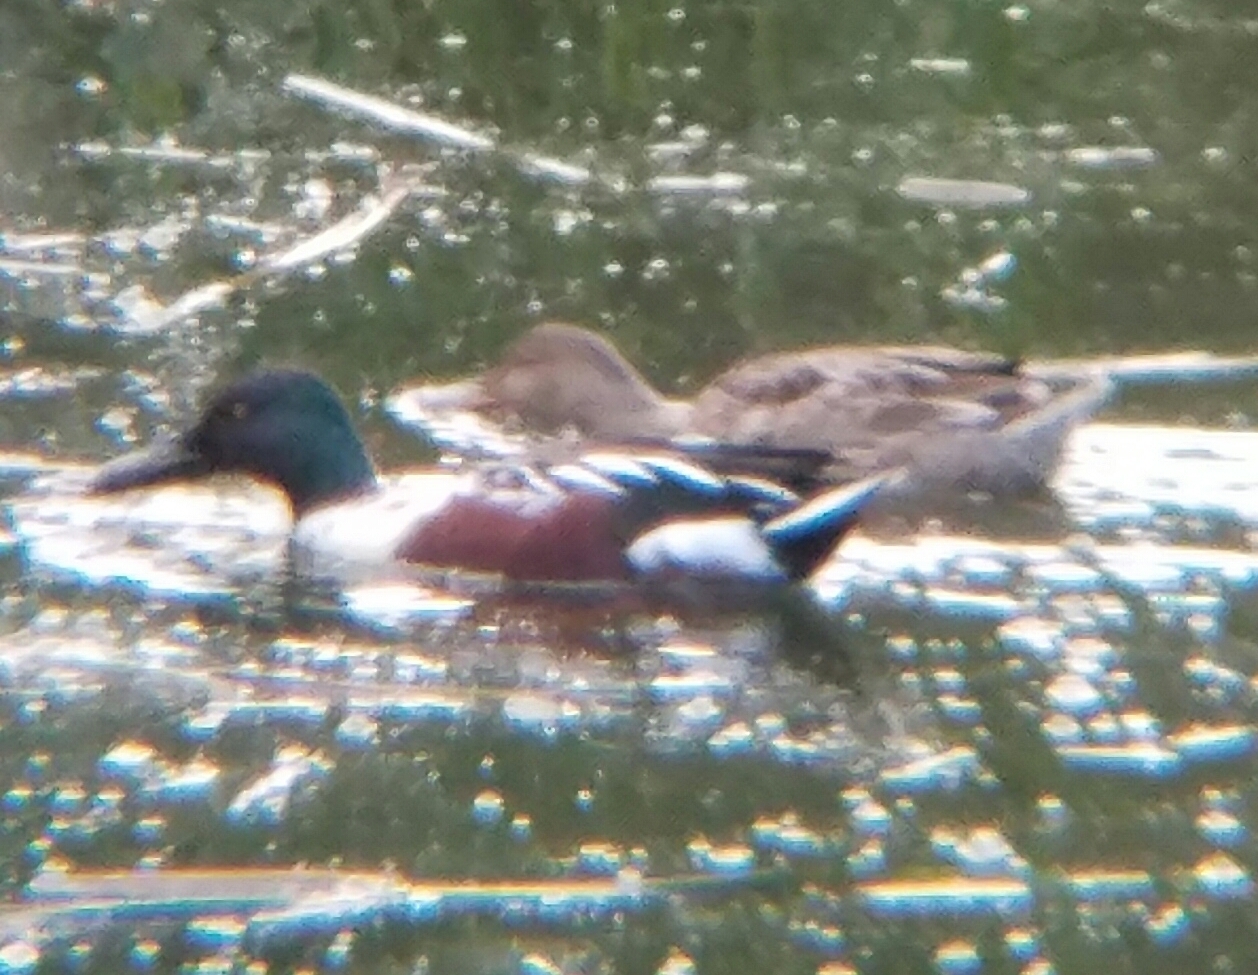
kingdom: Animalia
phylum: Chordata
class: Aves
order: Anseriformes
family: Anatidae
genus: Spatula
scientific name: Spatula clypeata
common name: Northern shoveler
